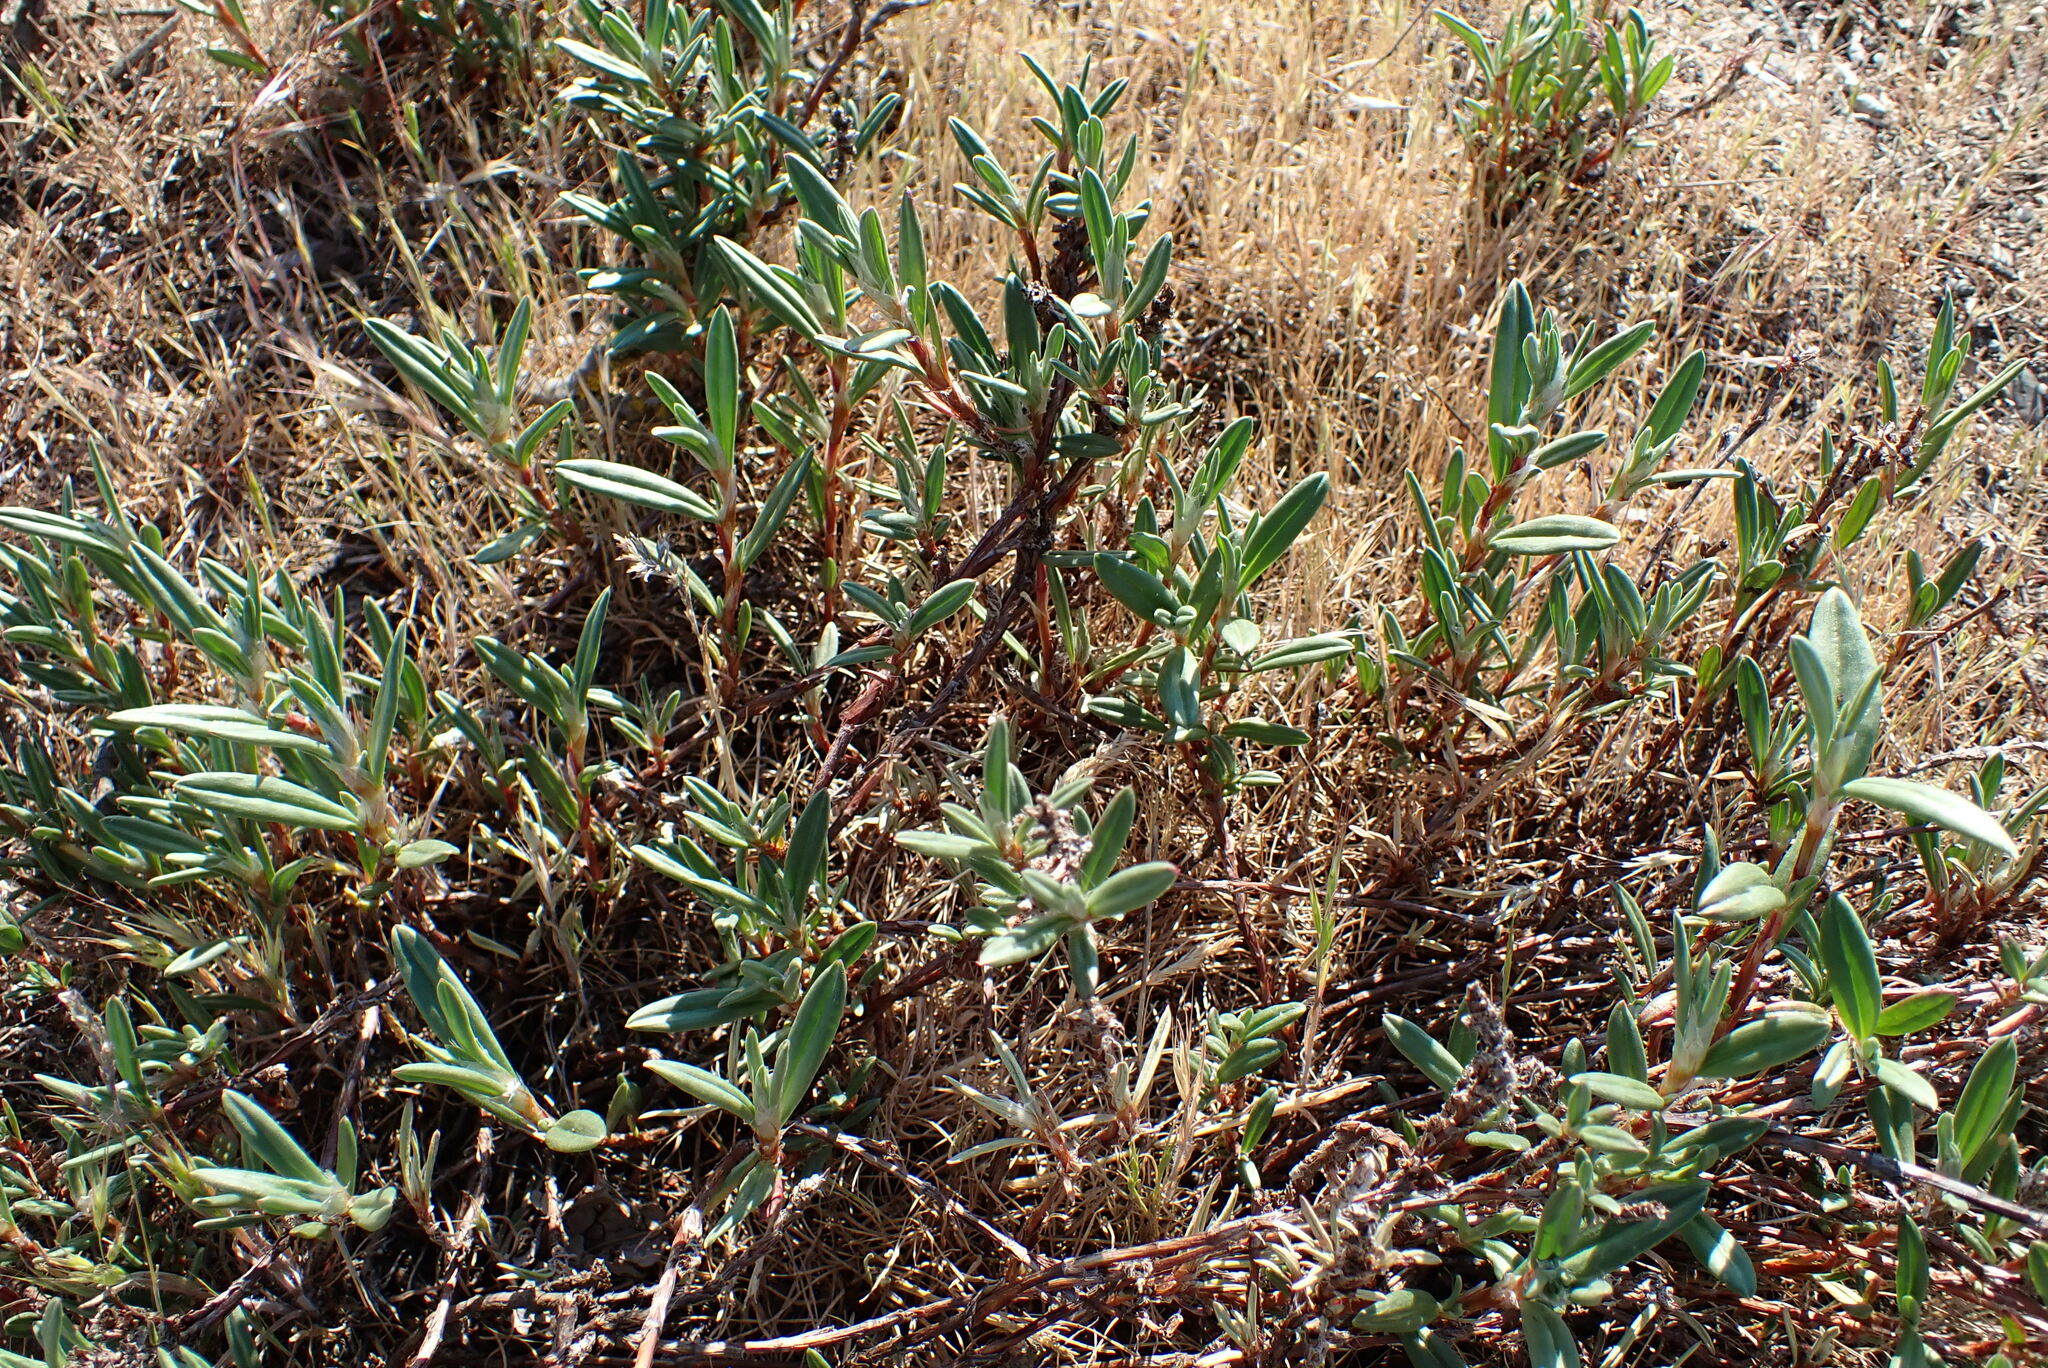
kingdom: Plantae
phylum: Tracheophyta
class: Magnoliopsida
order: Caryophyllales
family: Polygonaceae
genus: Polygonum
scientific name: Polygonum paronychia
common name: Dune knotweed
